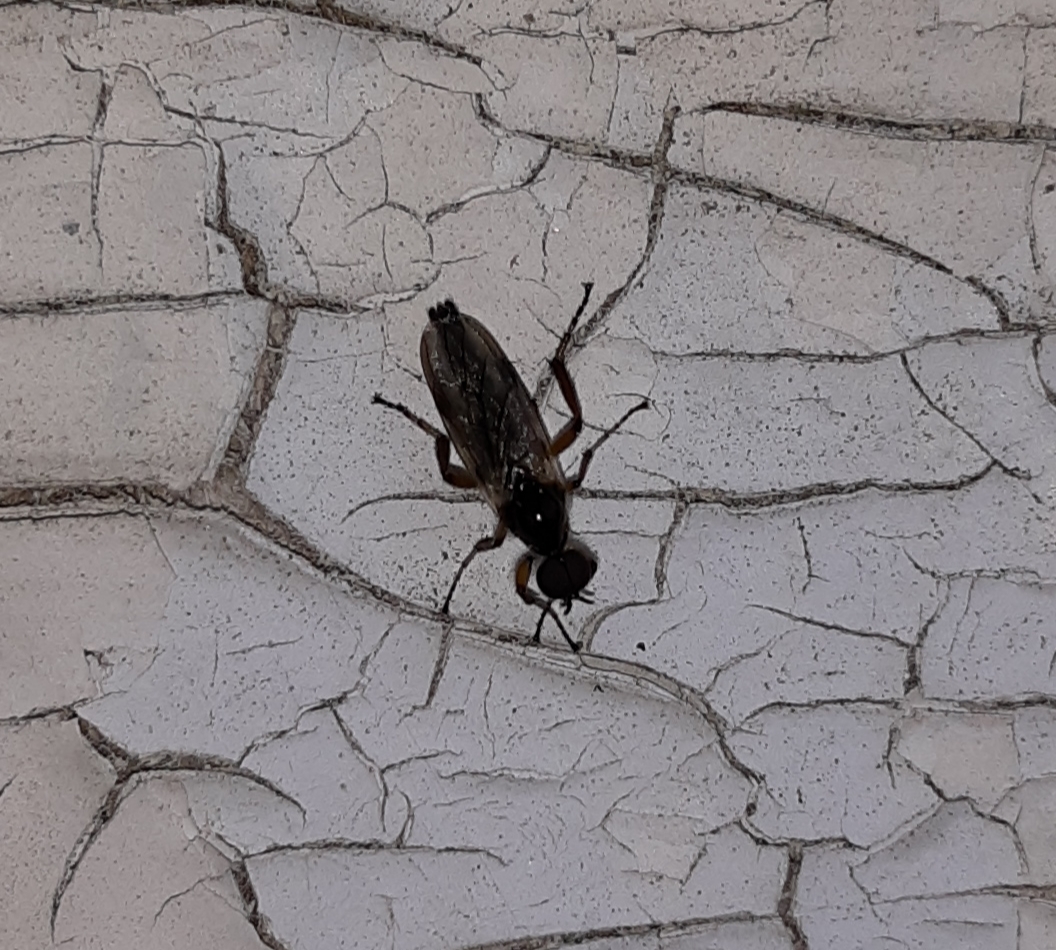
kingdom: Animalia
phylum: Arthropoda
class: Insecta
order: Diptera
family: Bibionidae
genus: Bibio
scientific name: Bibio
